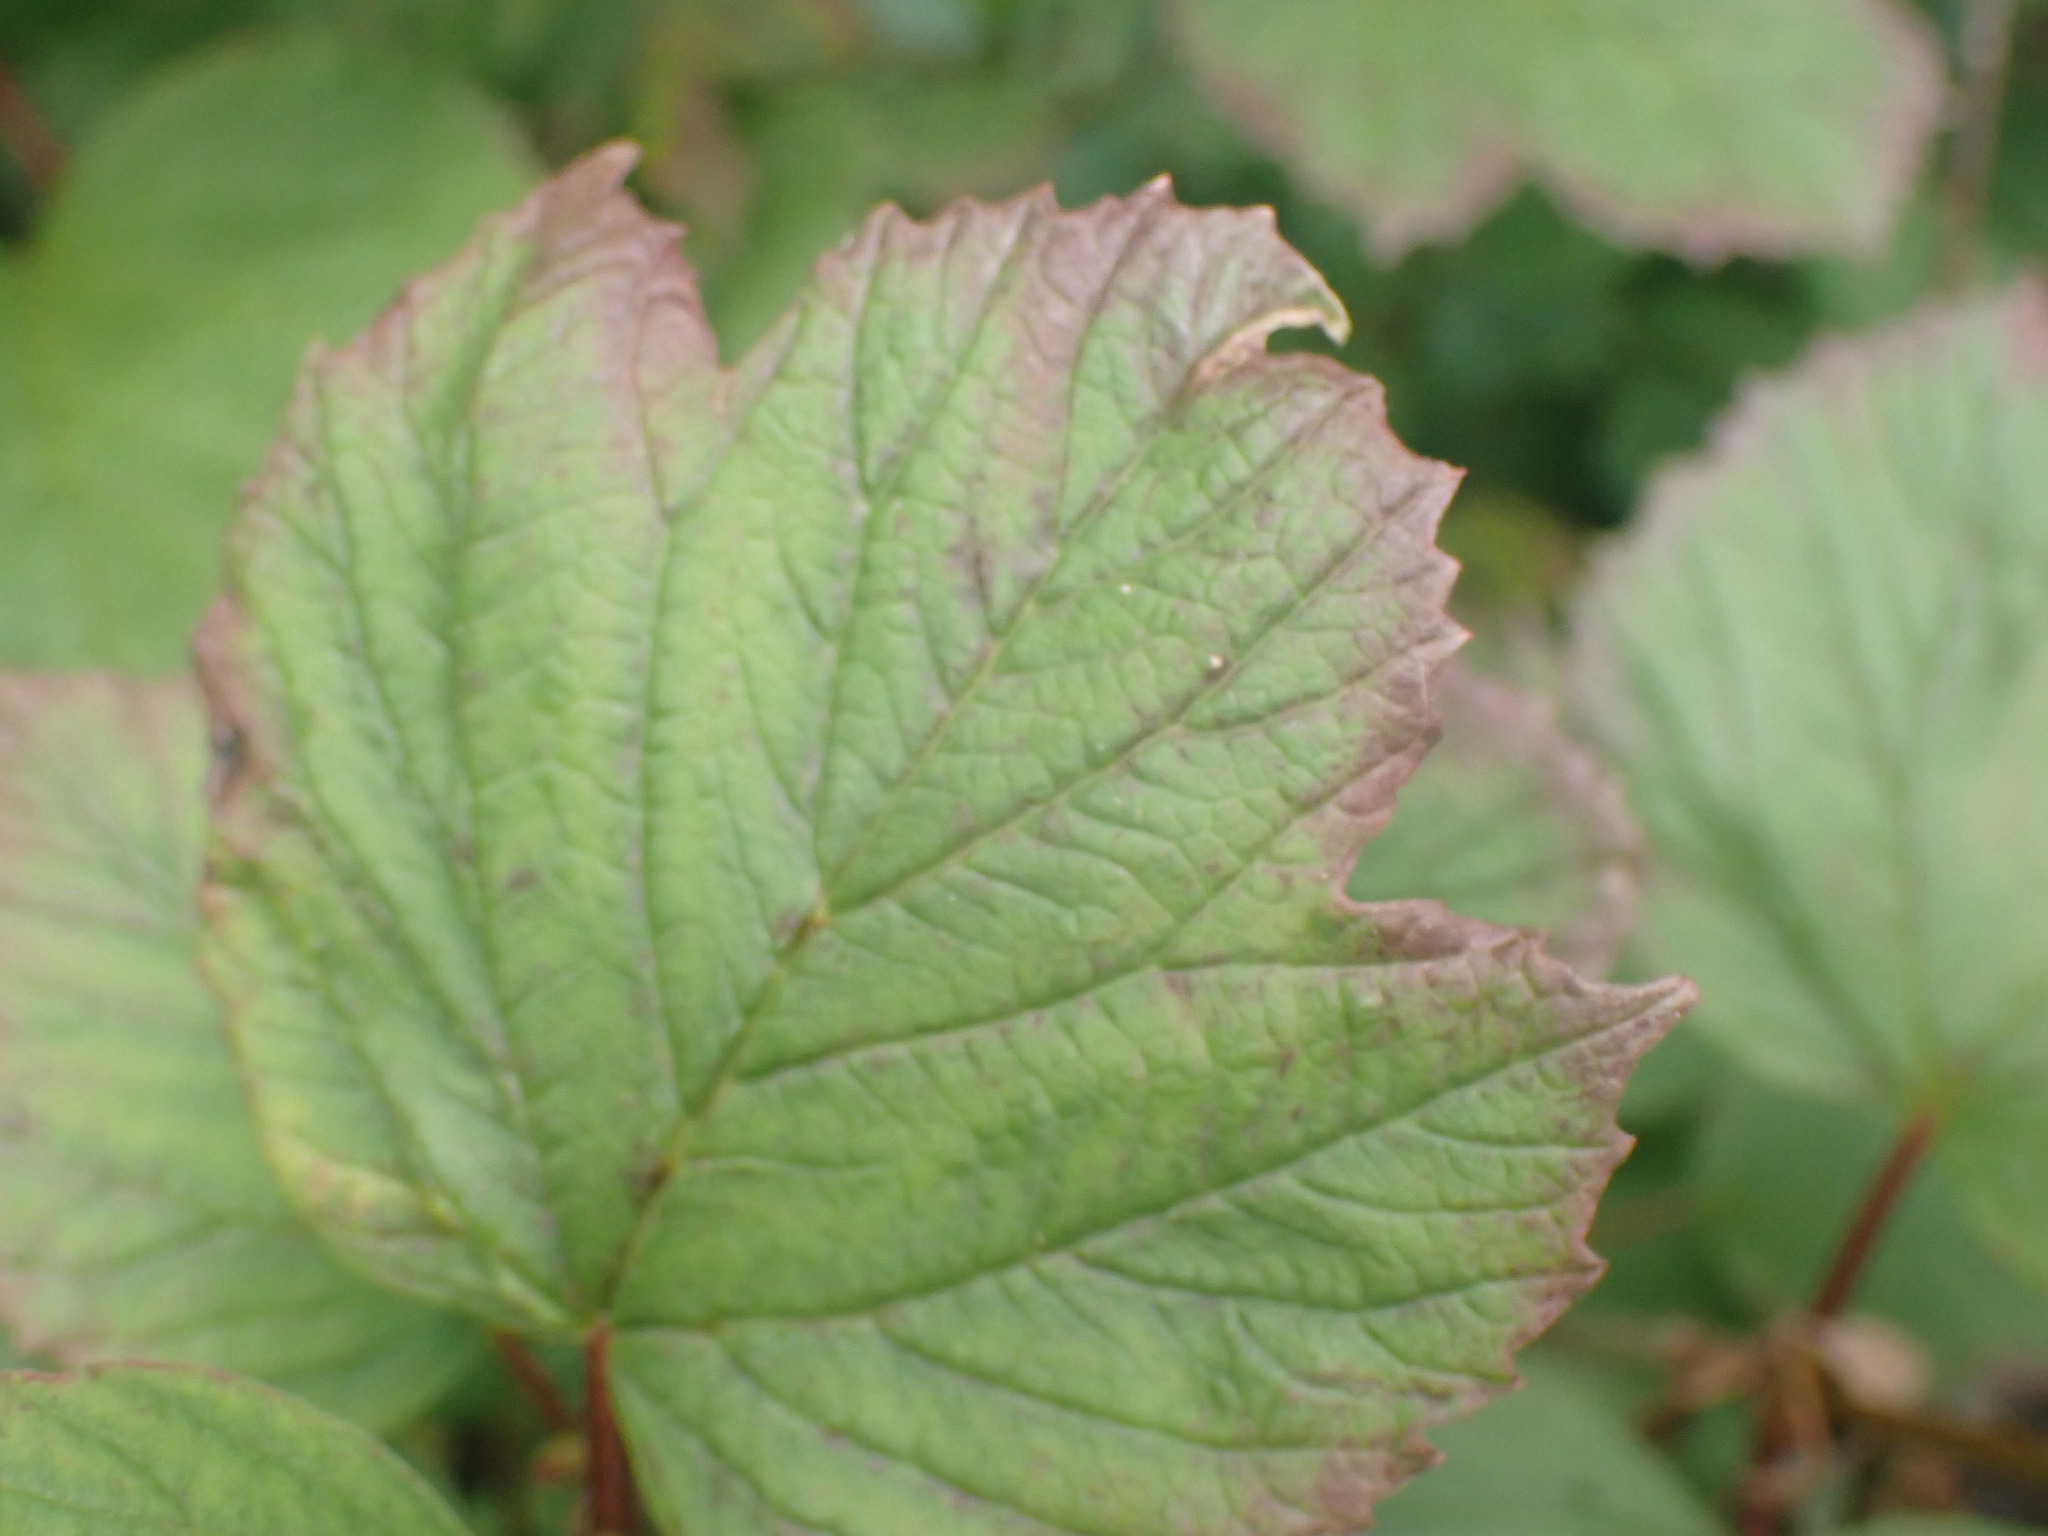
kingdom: Plantae
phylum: Tracheophyta
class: Magnoliopsida
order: Dipsacales
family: Viburnaceae
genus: Viburnum
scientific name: Viburnum edule
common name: Mooseberry
